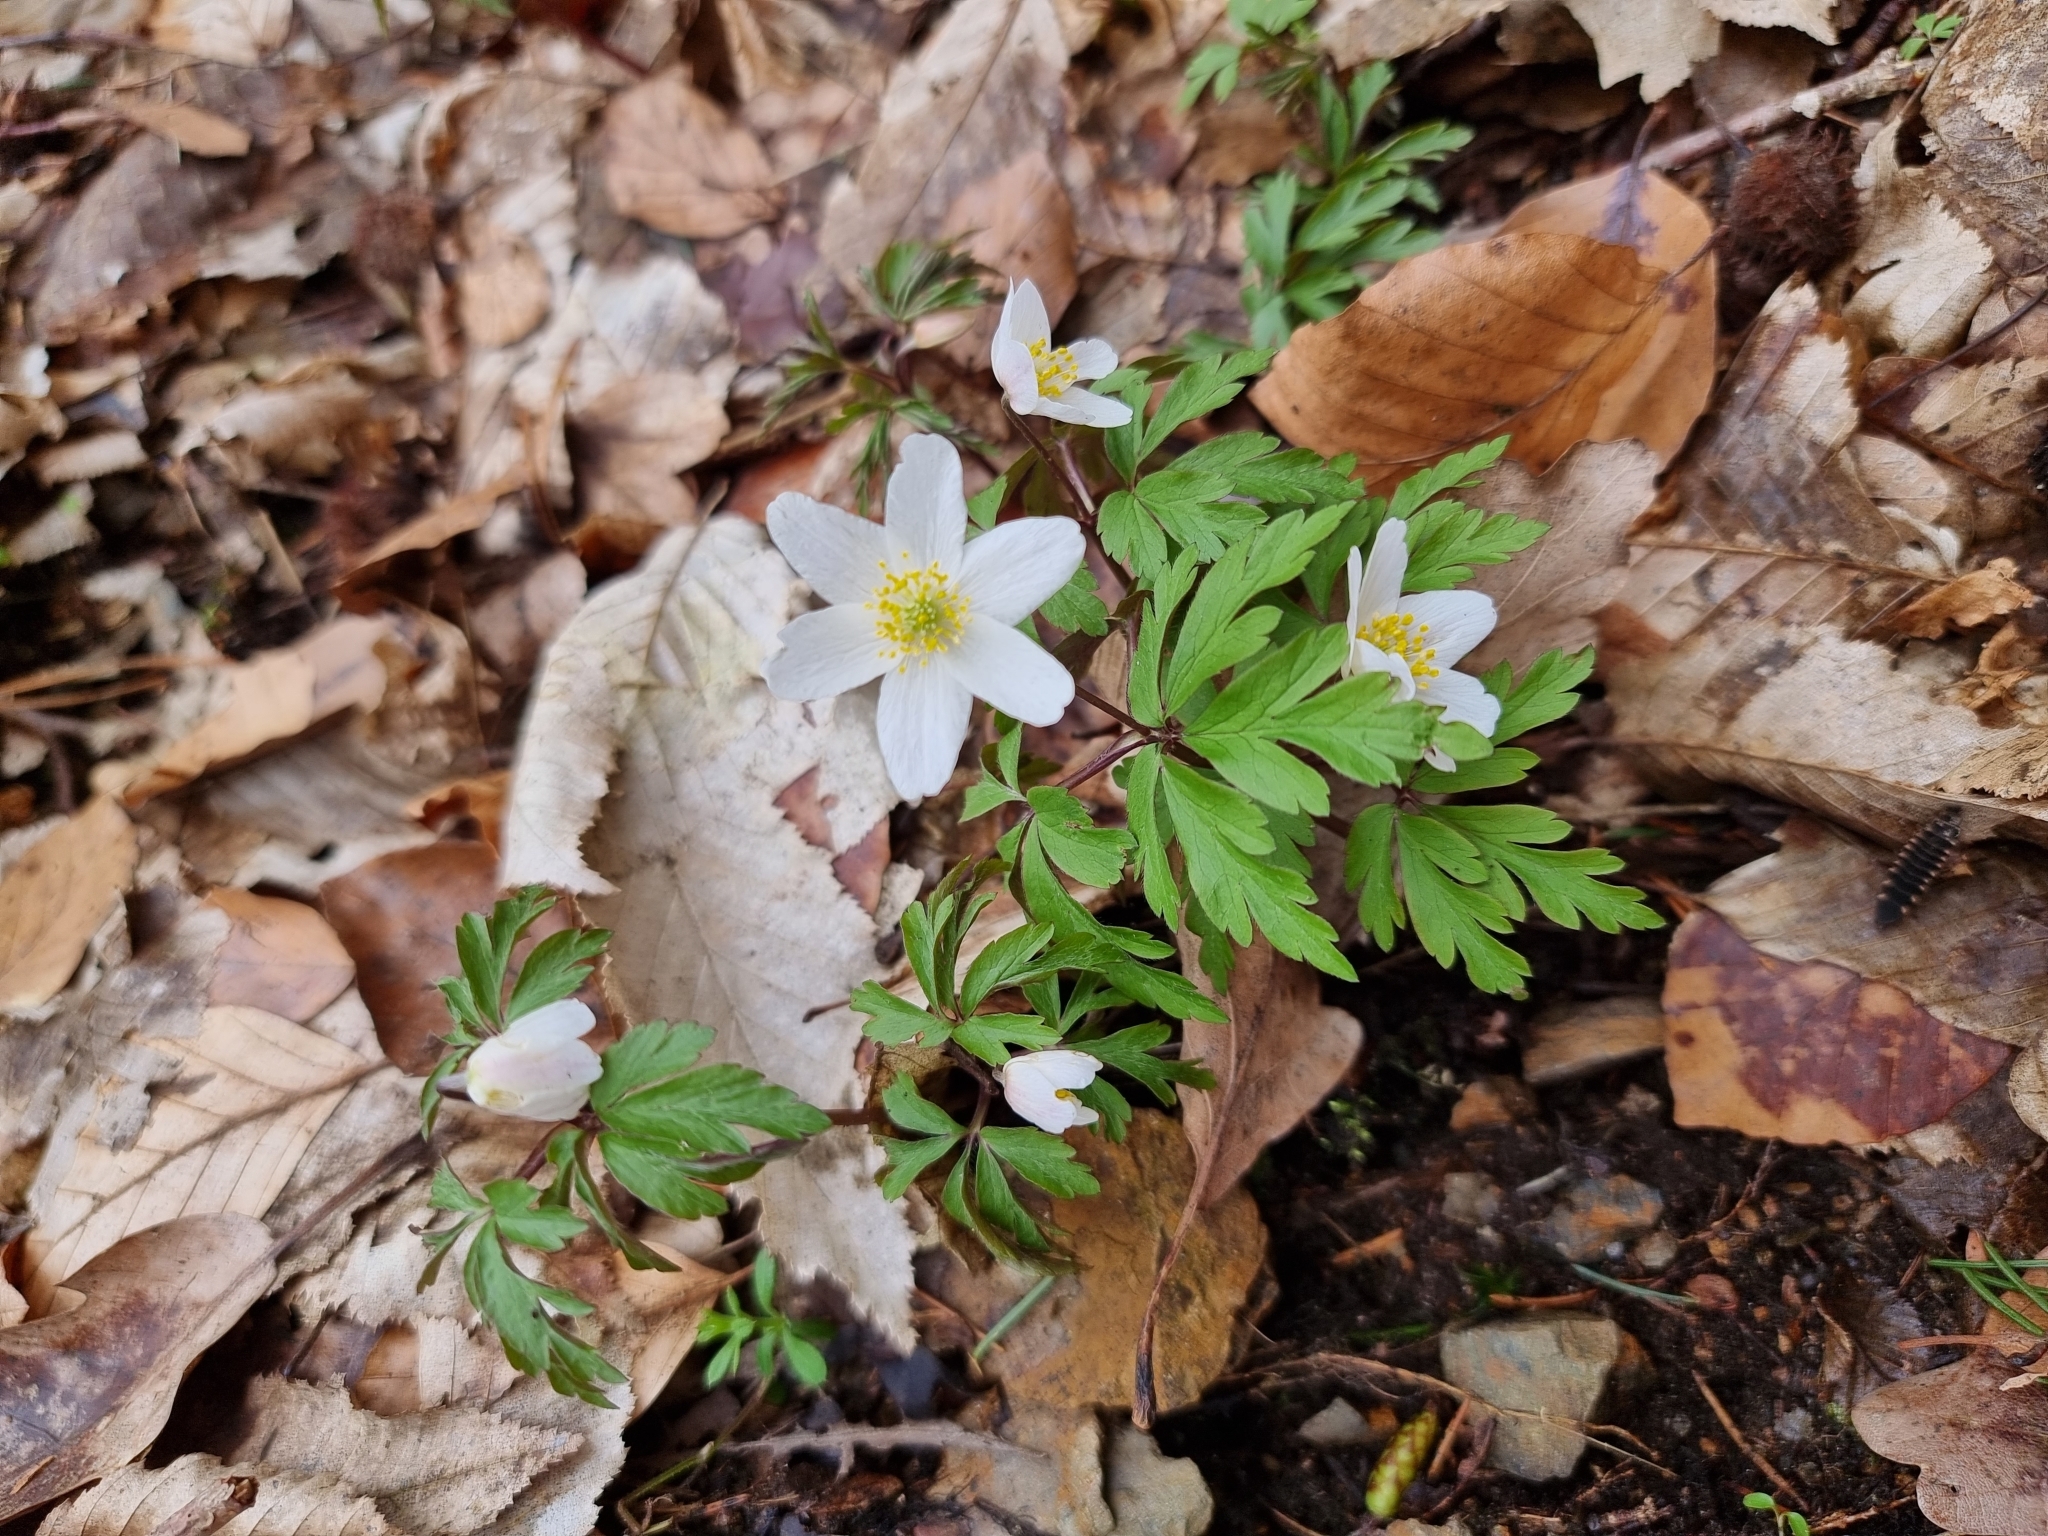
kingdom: Plantae
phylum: Tracheophyta
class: Magnoliopsida
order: Ranunculales
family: Ranunculaceae
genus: Anemone
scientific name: Anemone nemorosa
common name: Wood anemone
